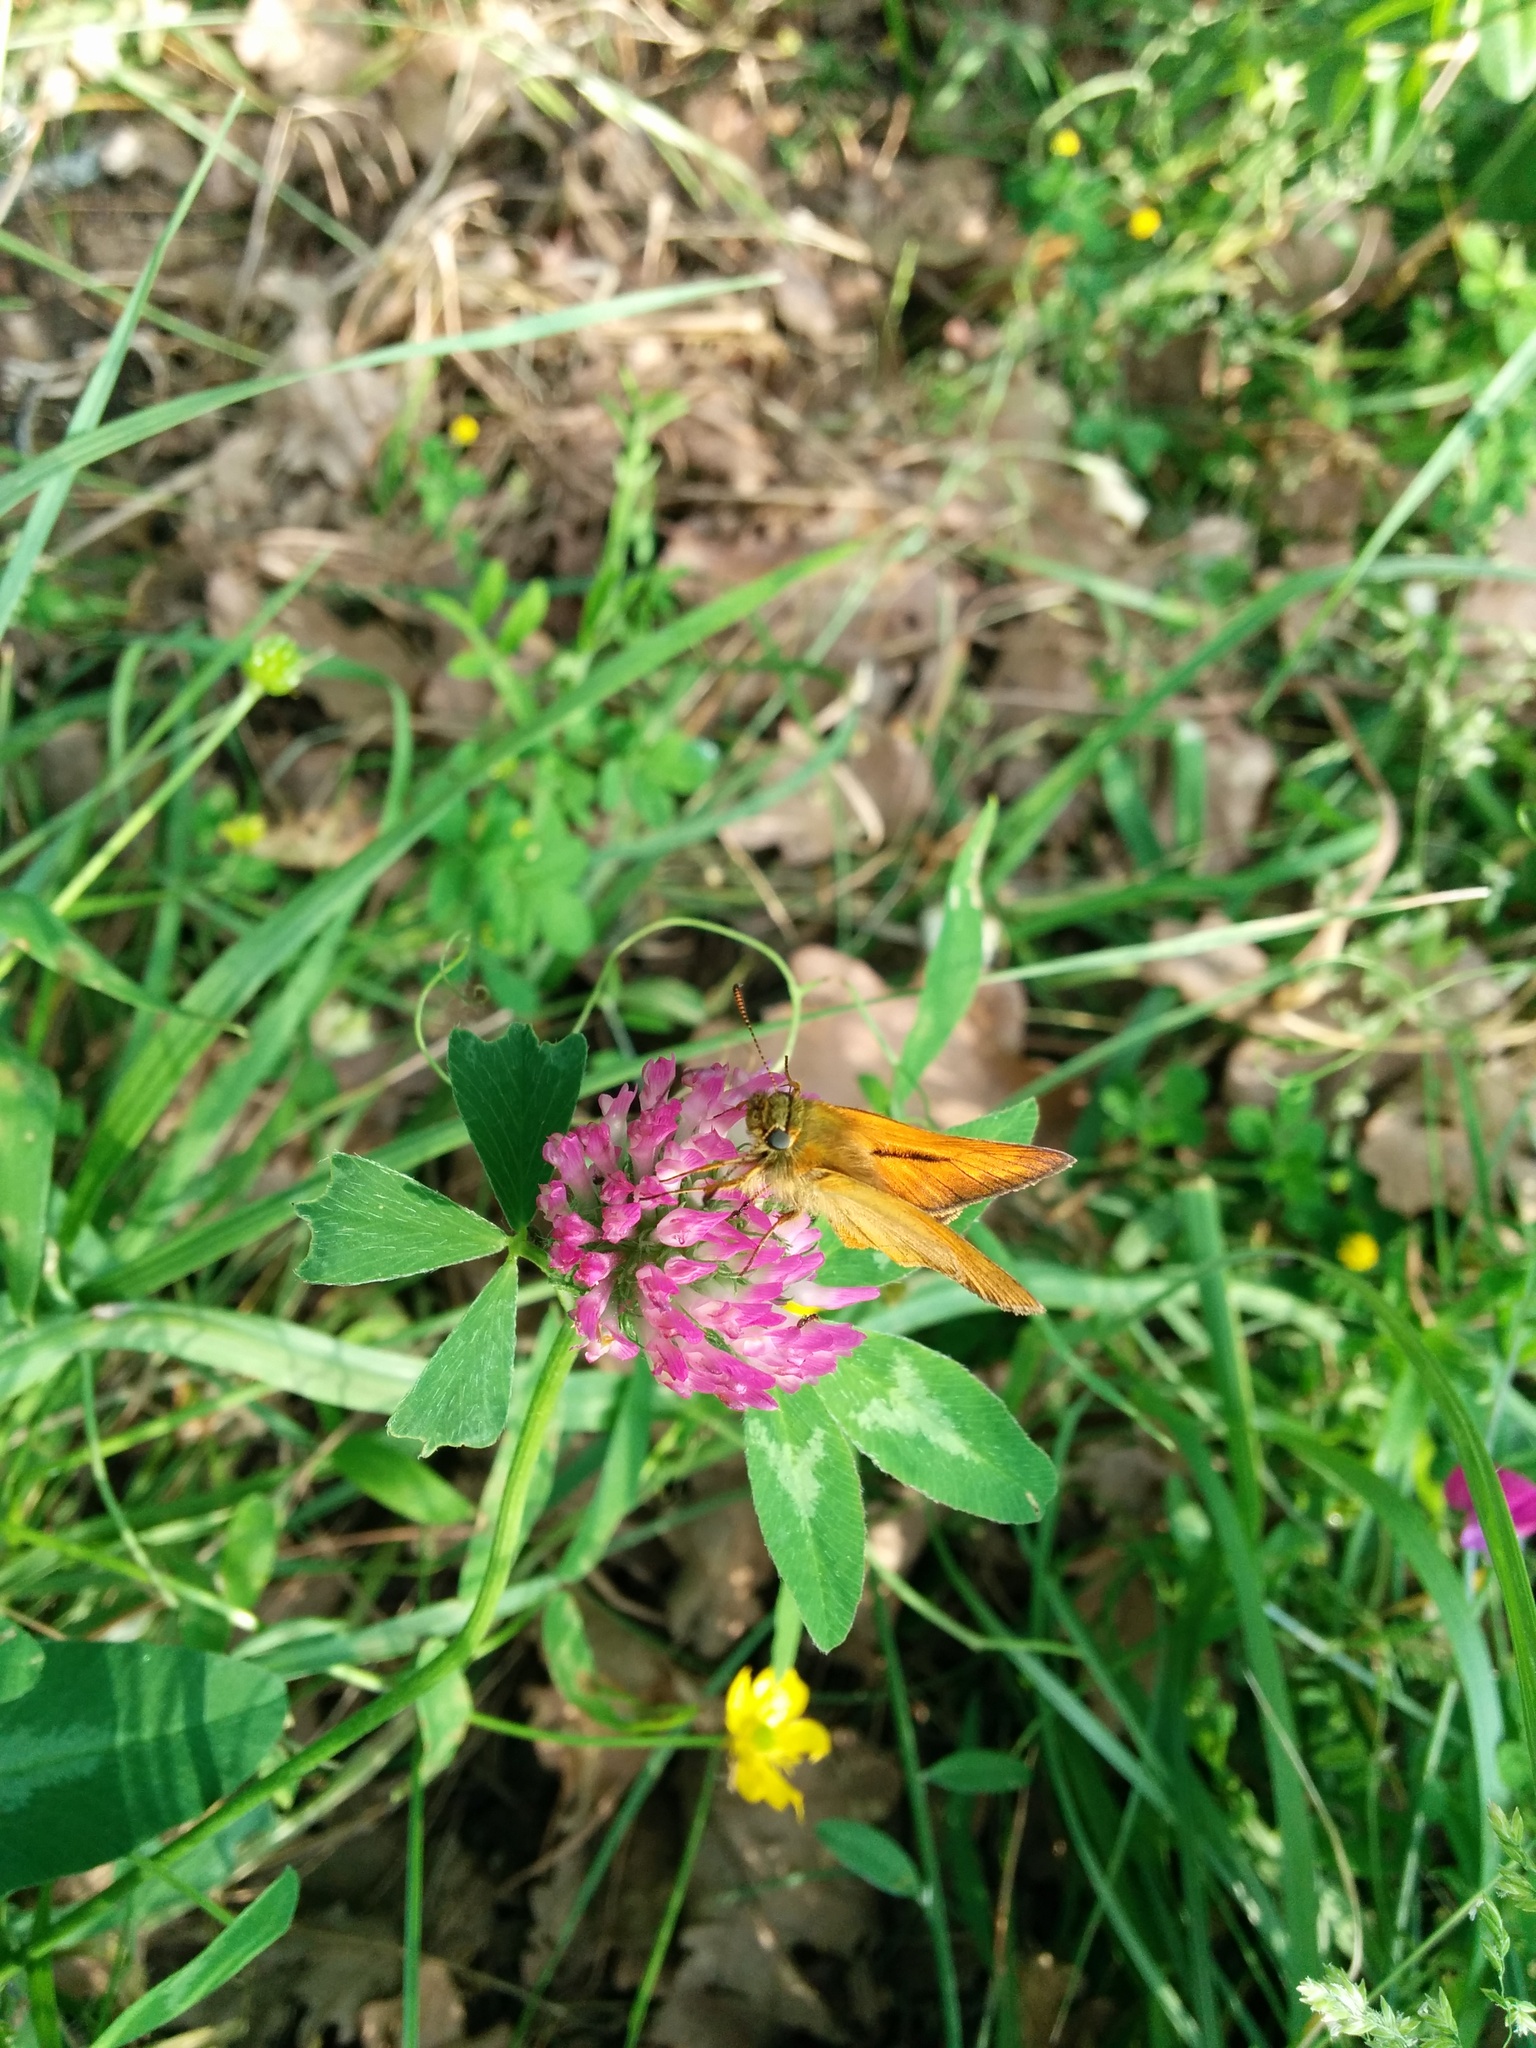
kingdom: Animalia
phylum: Arthropoda
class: Insecta
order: Lepidoptera
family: Hesperiidae
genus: Ochlodes
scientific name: Ochlodes venata
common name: Large skipper
